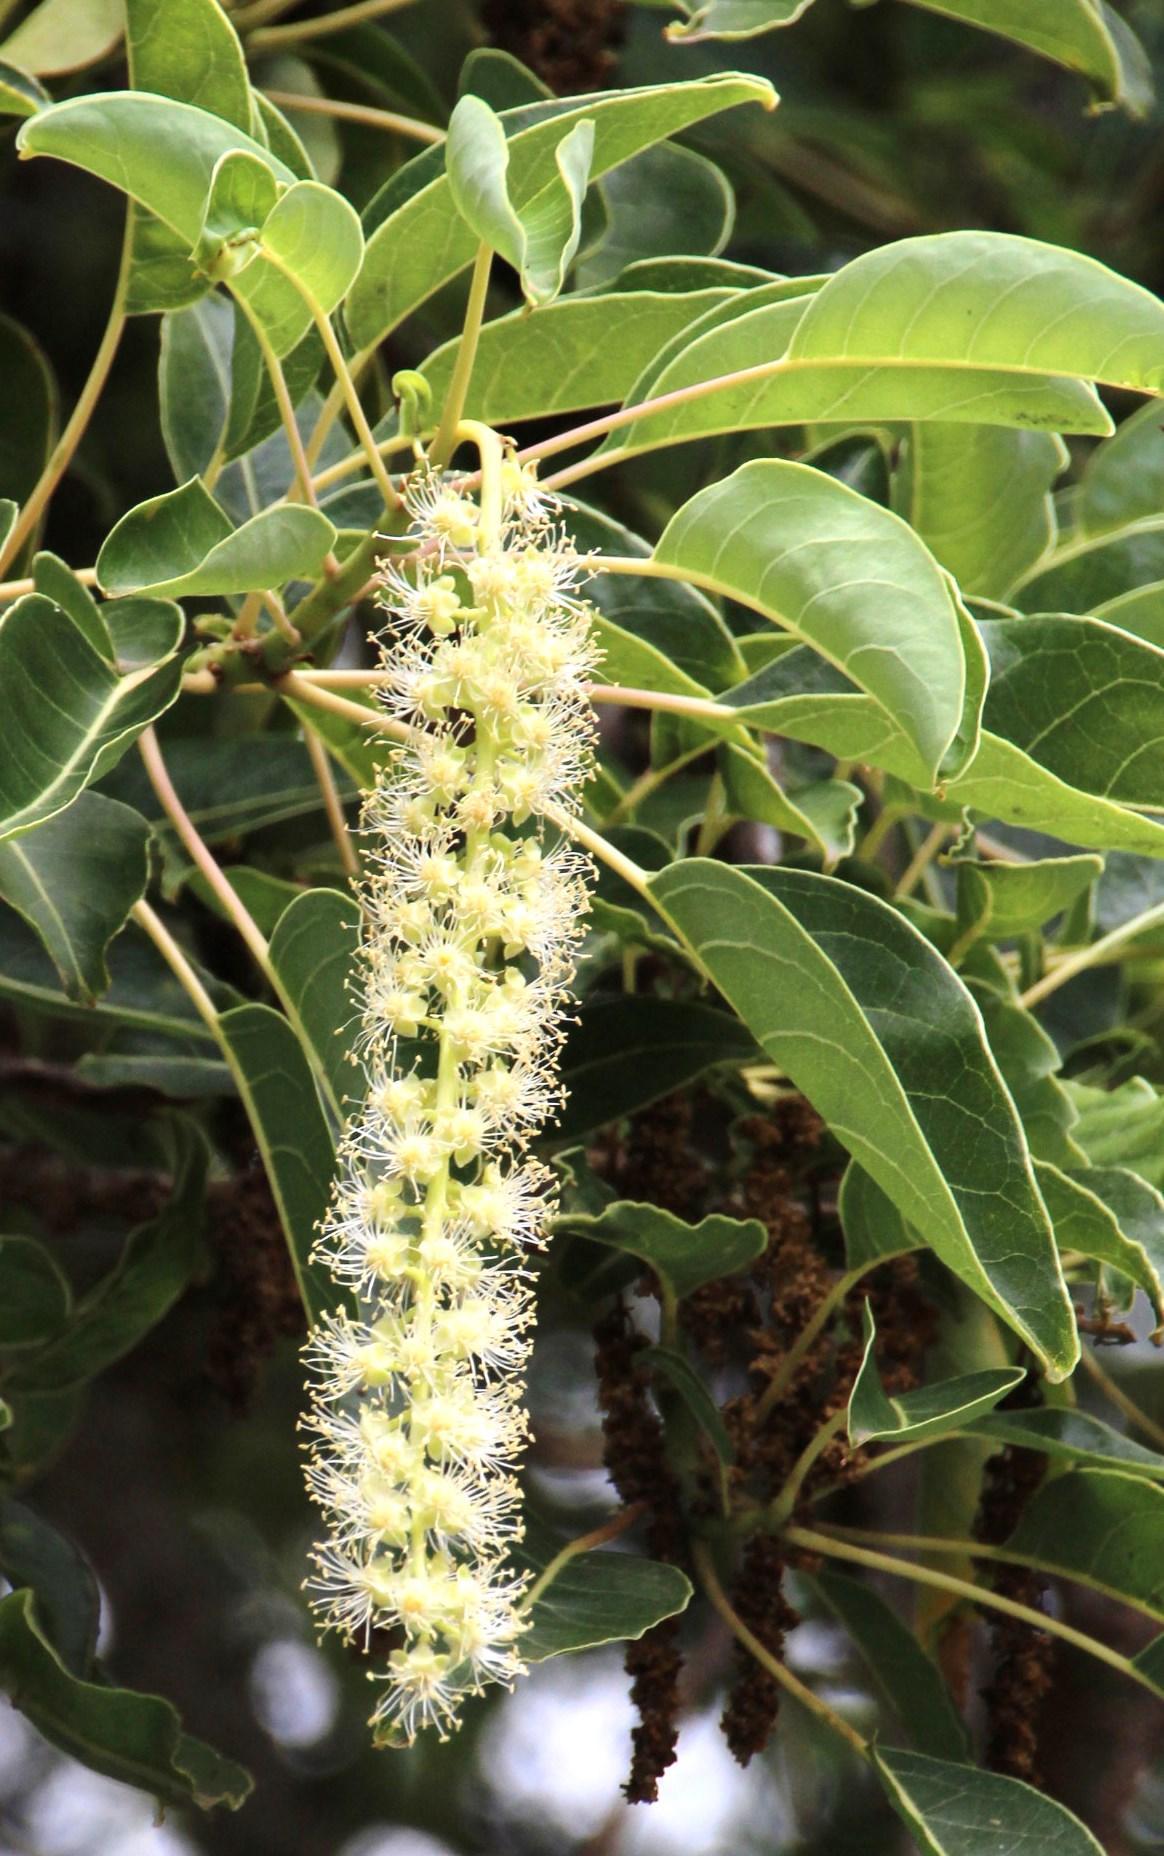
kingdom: Plantae
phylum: Tracheophyta
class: Magnoliopsida
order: Caryophyllales
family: Phytolaccaceae
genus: Phytolacca
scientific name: Phytolacca dioica
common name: Pokeweed
